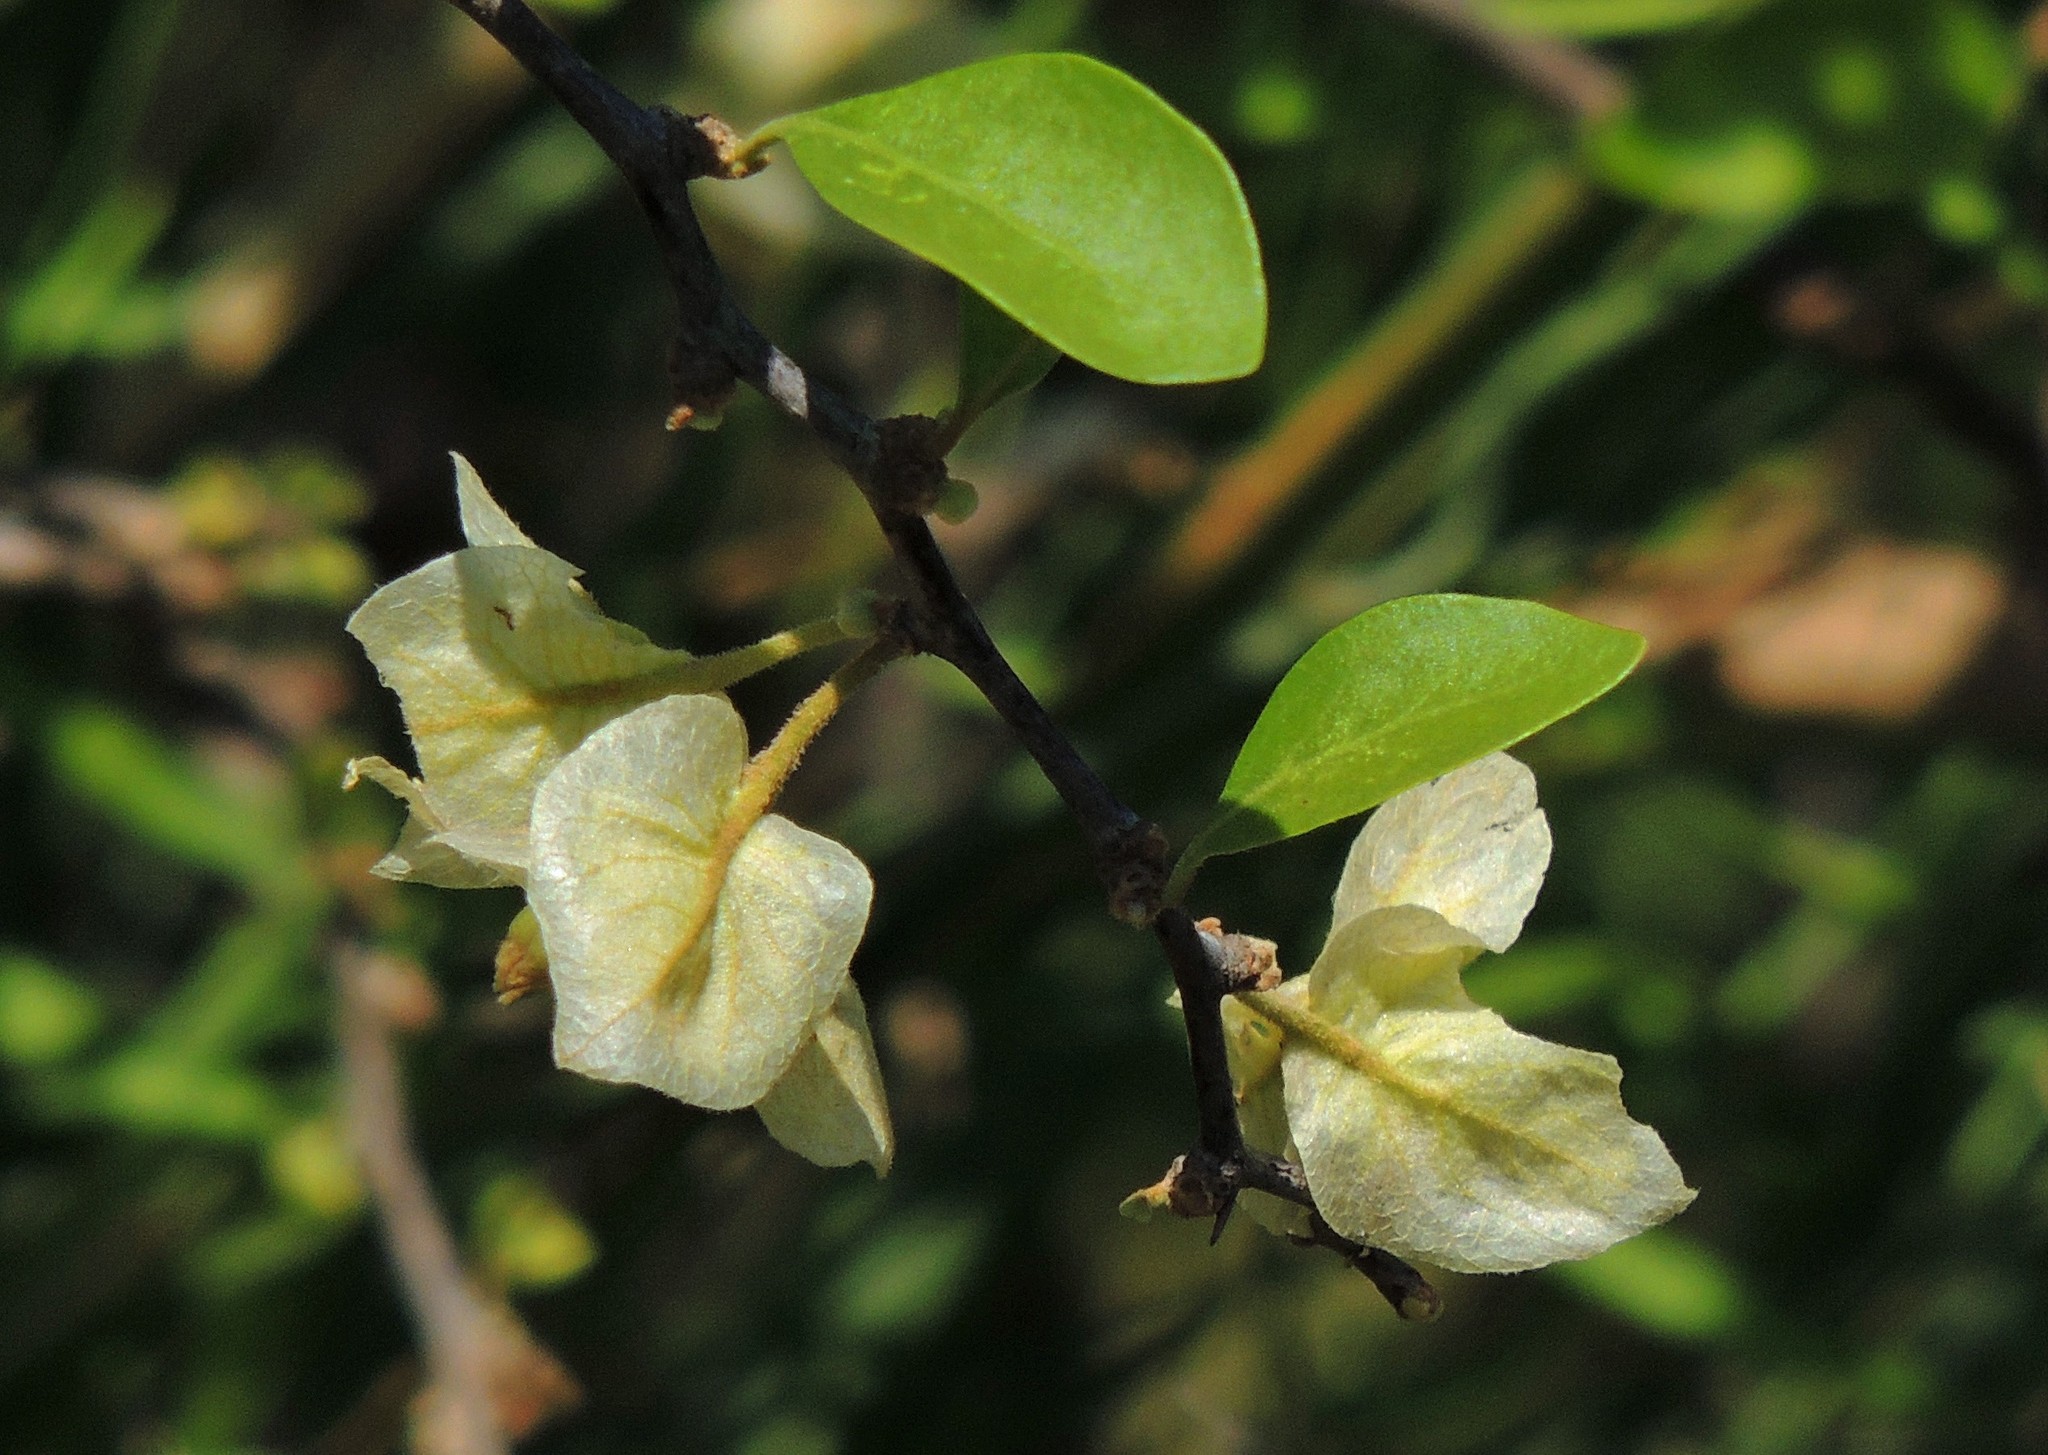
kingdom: Plantae
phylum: Tracheophyta
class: Magnoliopsida
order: Caryophyllales
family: Nyctaginaceae
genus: Bougainvillea
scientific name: Bougainvillea campanulata
